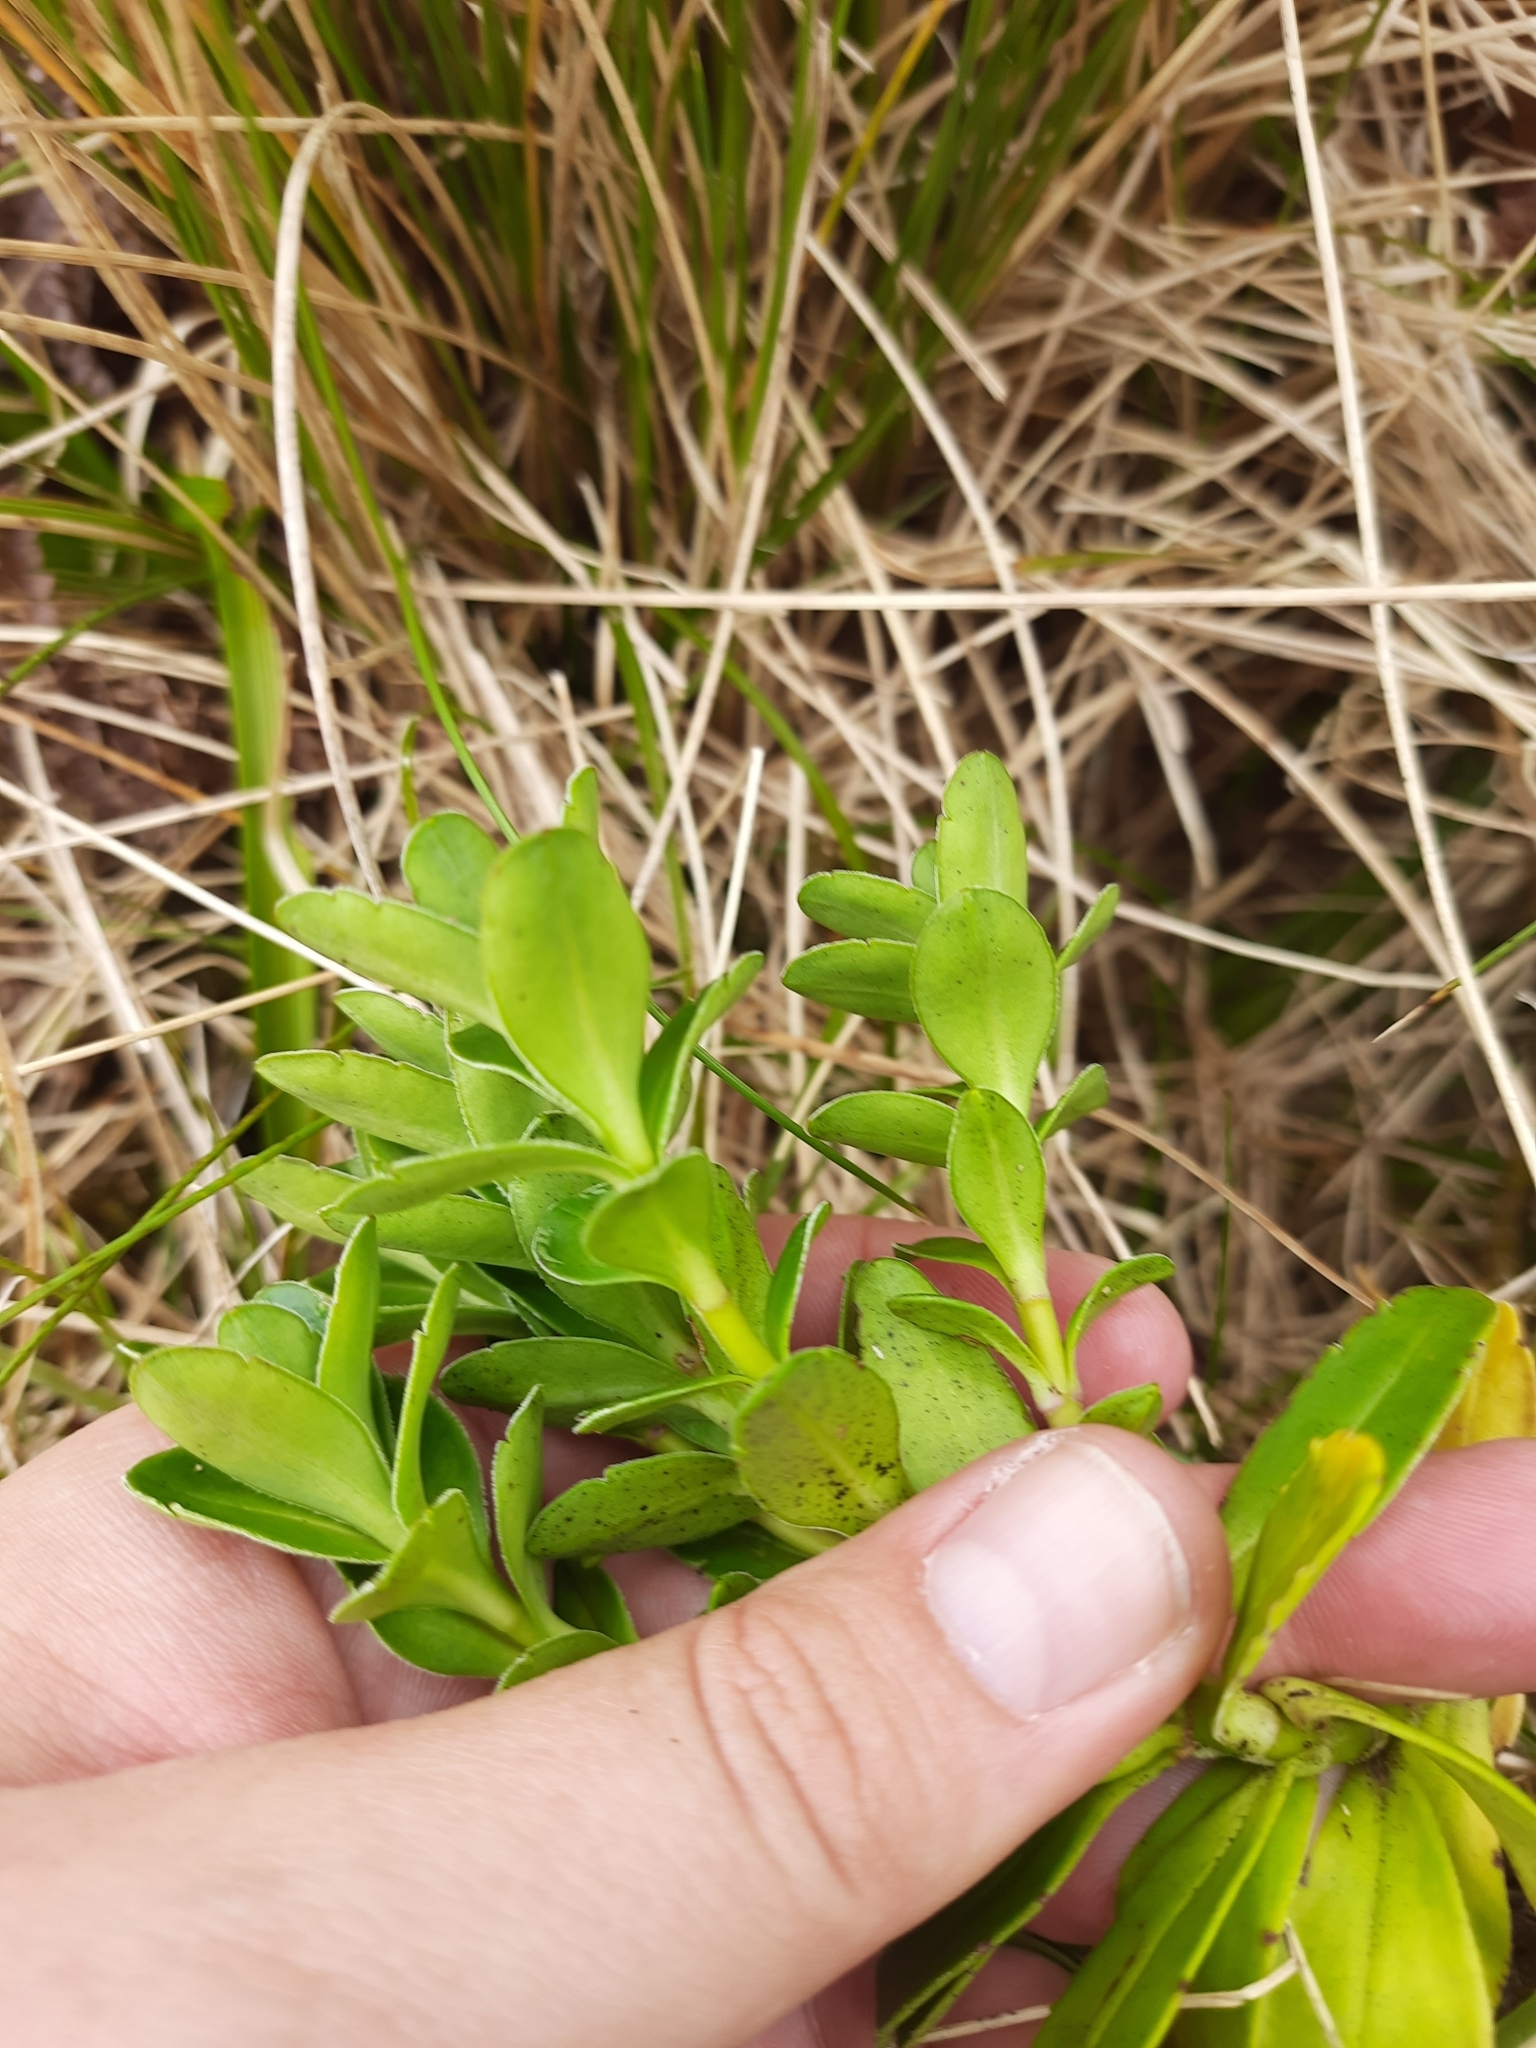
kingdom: Plantae
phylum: Tracheophyta
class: Magnoliopsida
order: Lamiales
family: Plantaginaceae
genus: Veronica
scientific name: Veronica benthamii
